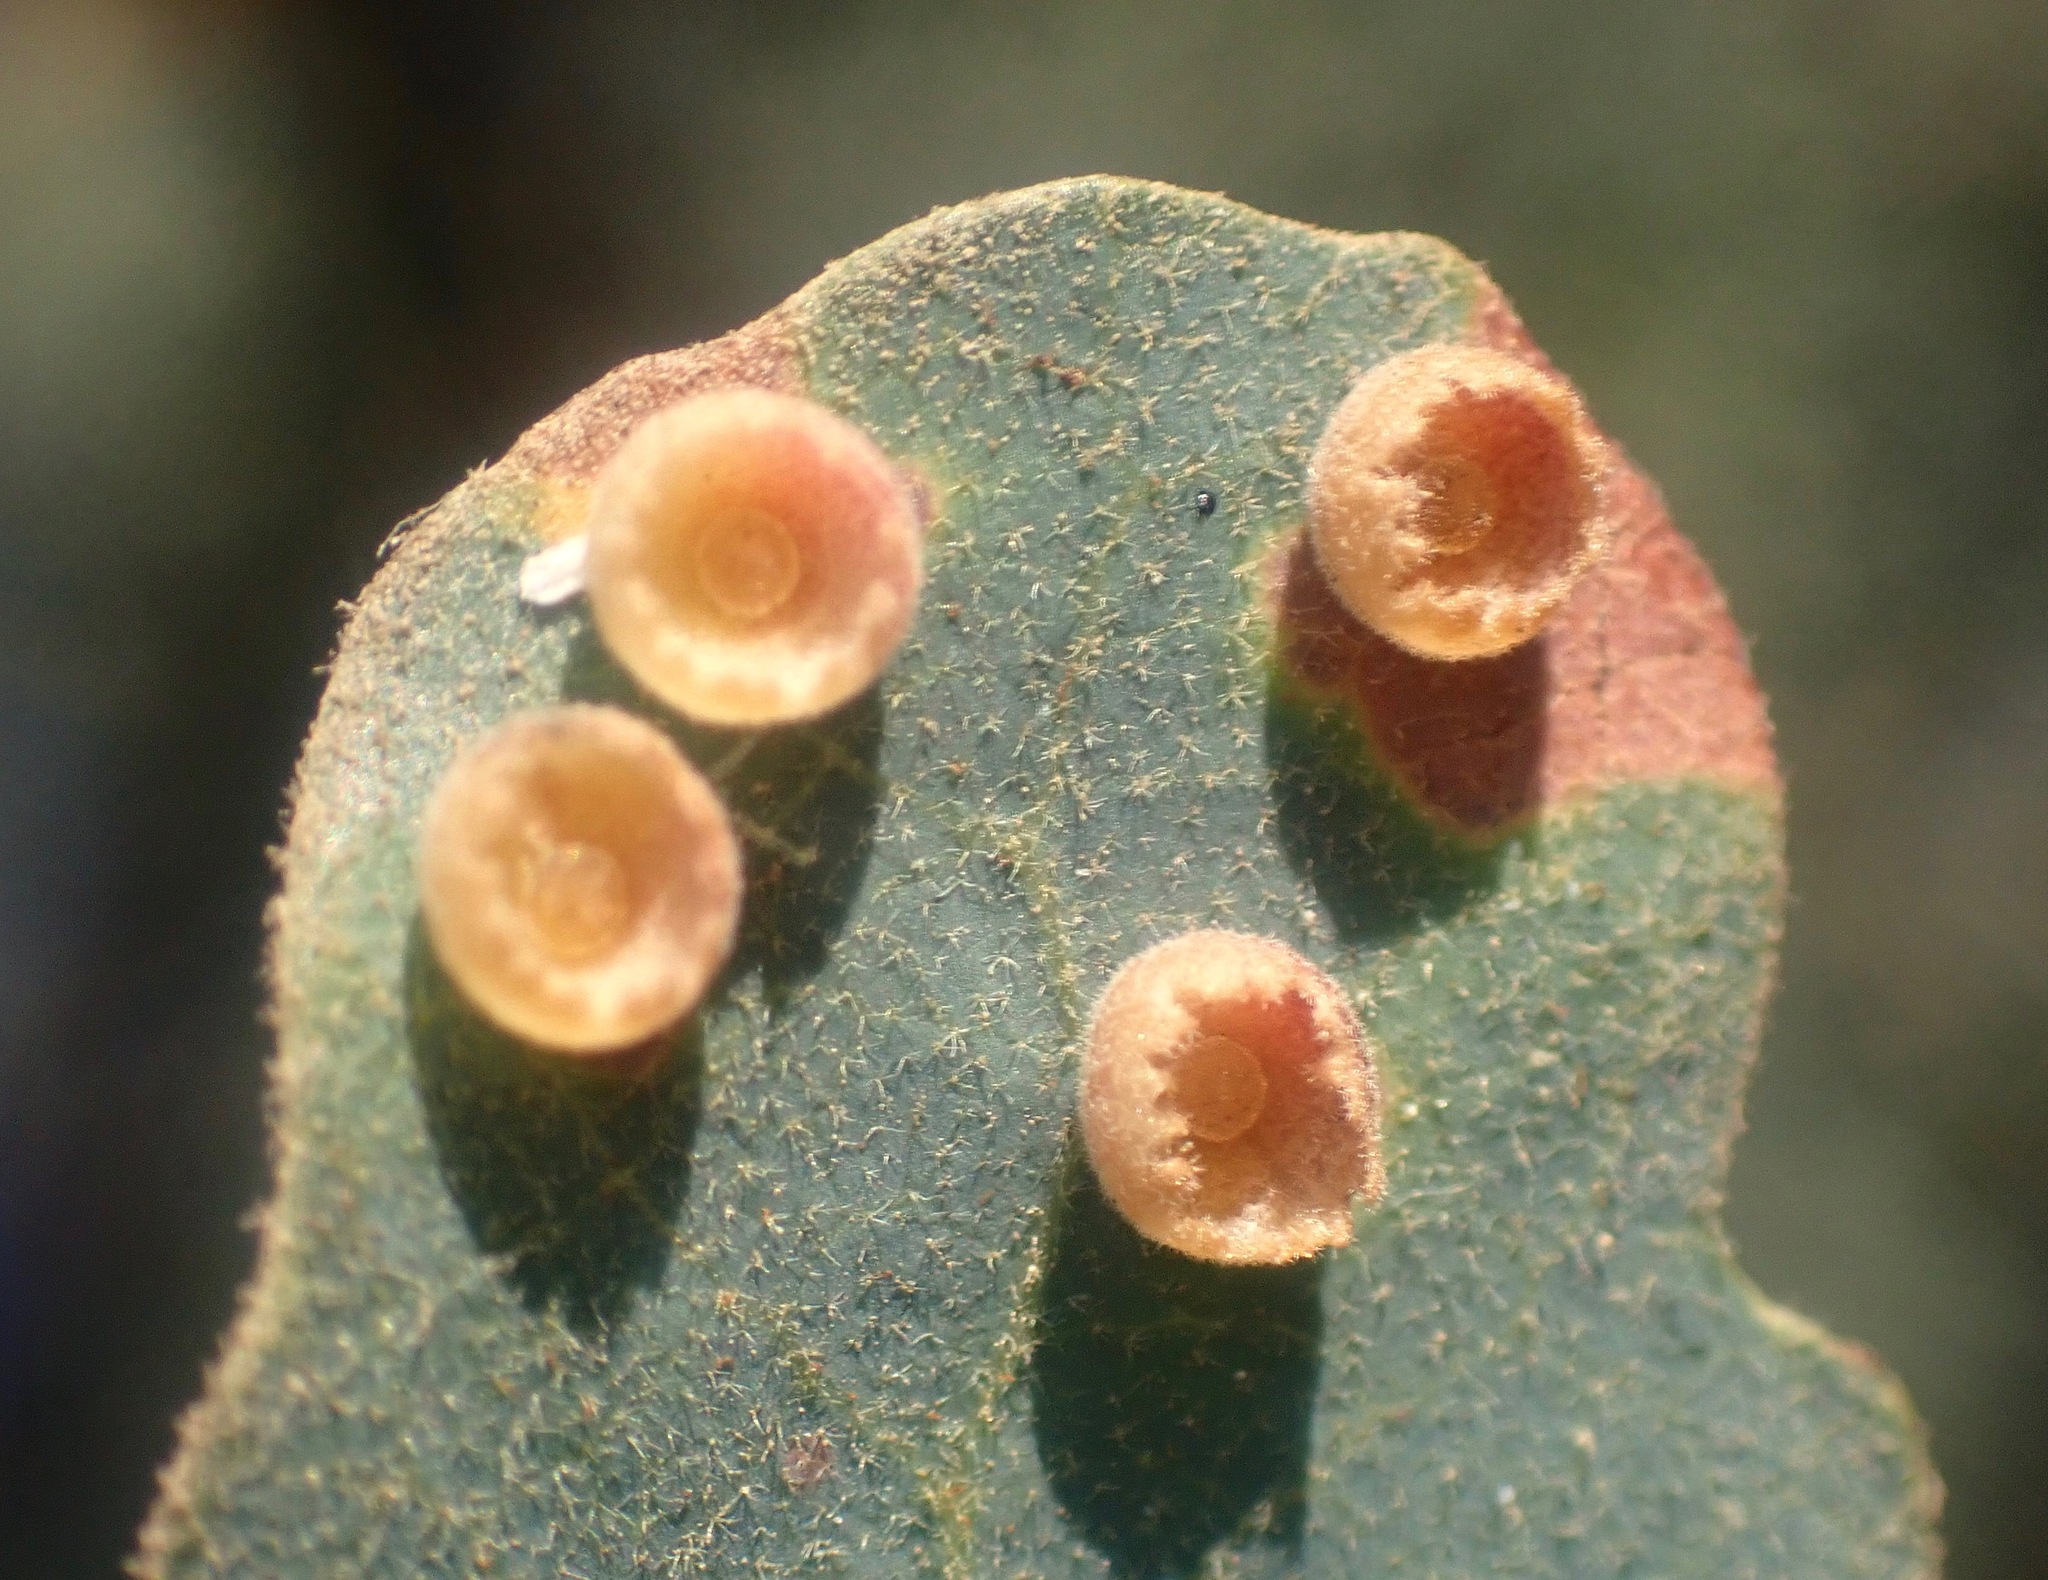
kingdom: Animalia
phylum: Arthropoda
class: Insecta
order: Hymenoptera
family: Cynipidae
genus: Andricus
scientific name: Andricus
